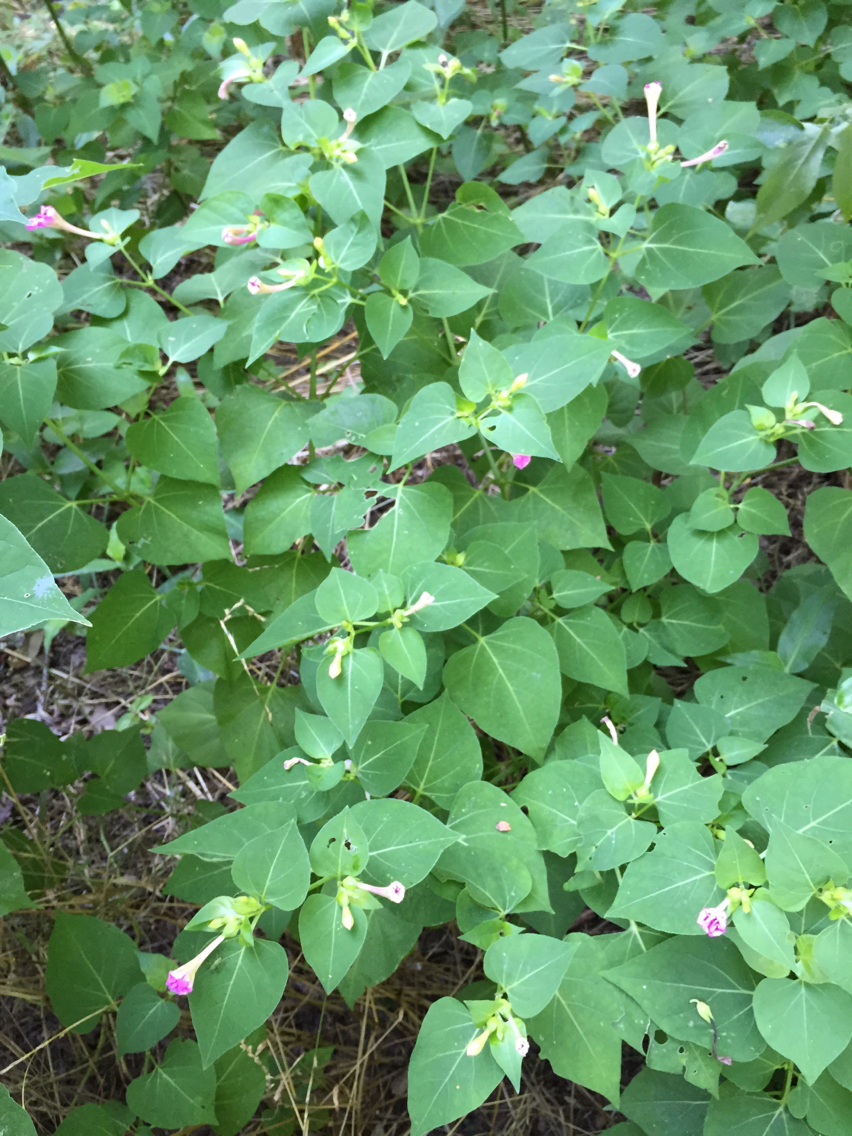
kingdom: Plantae
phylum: Tracheophyta
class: Magnoliopsida
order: Caryophyllales
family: Nyctaginaceae
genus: Mirabilis
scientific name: Mirabilis jalapa
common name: Marvel-of-peru
